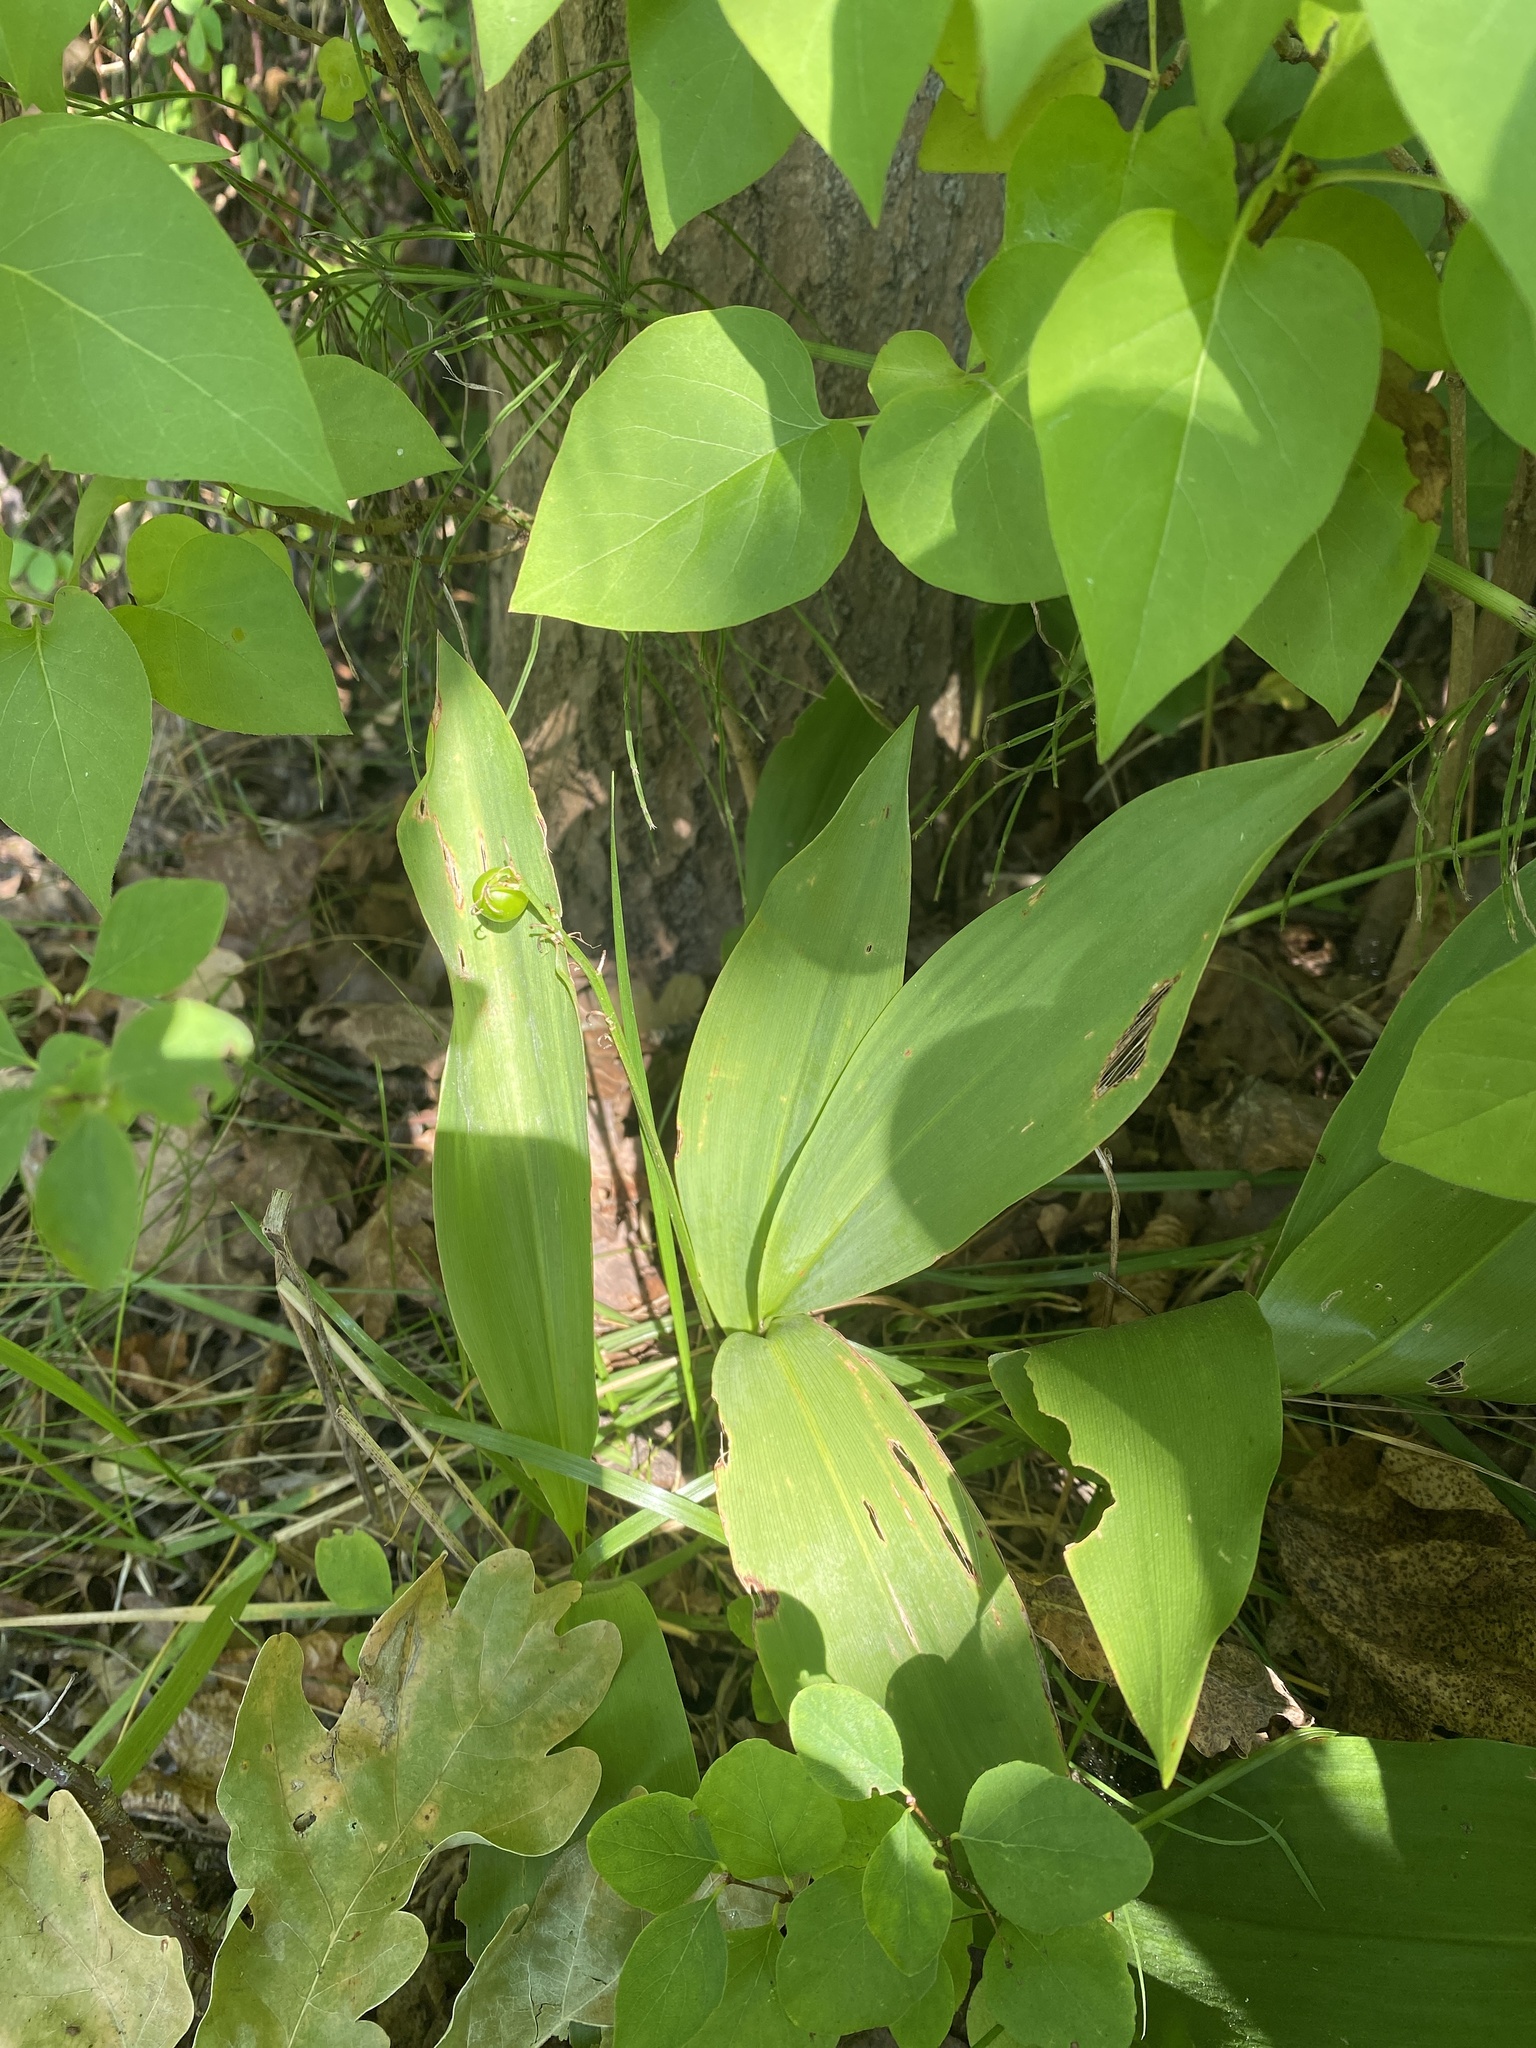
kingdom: Plantae
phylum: Tracheophyta
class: Liliopsida
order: Asparagales
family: Asparagaceae
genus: Convallaria
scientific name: Convallaria majalis
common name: Lily-of-the-valley
